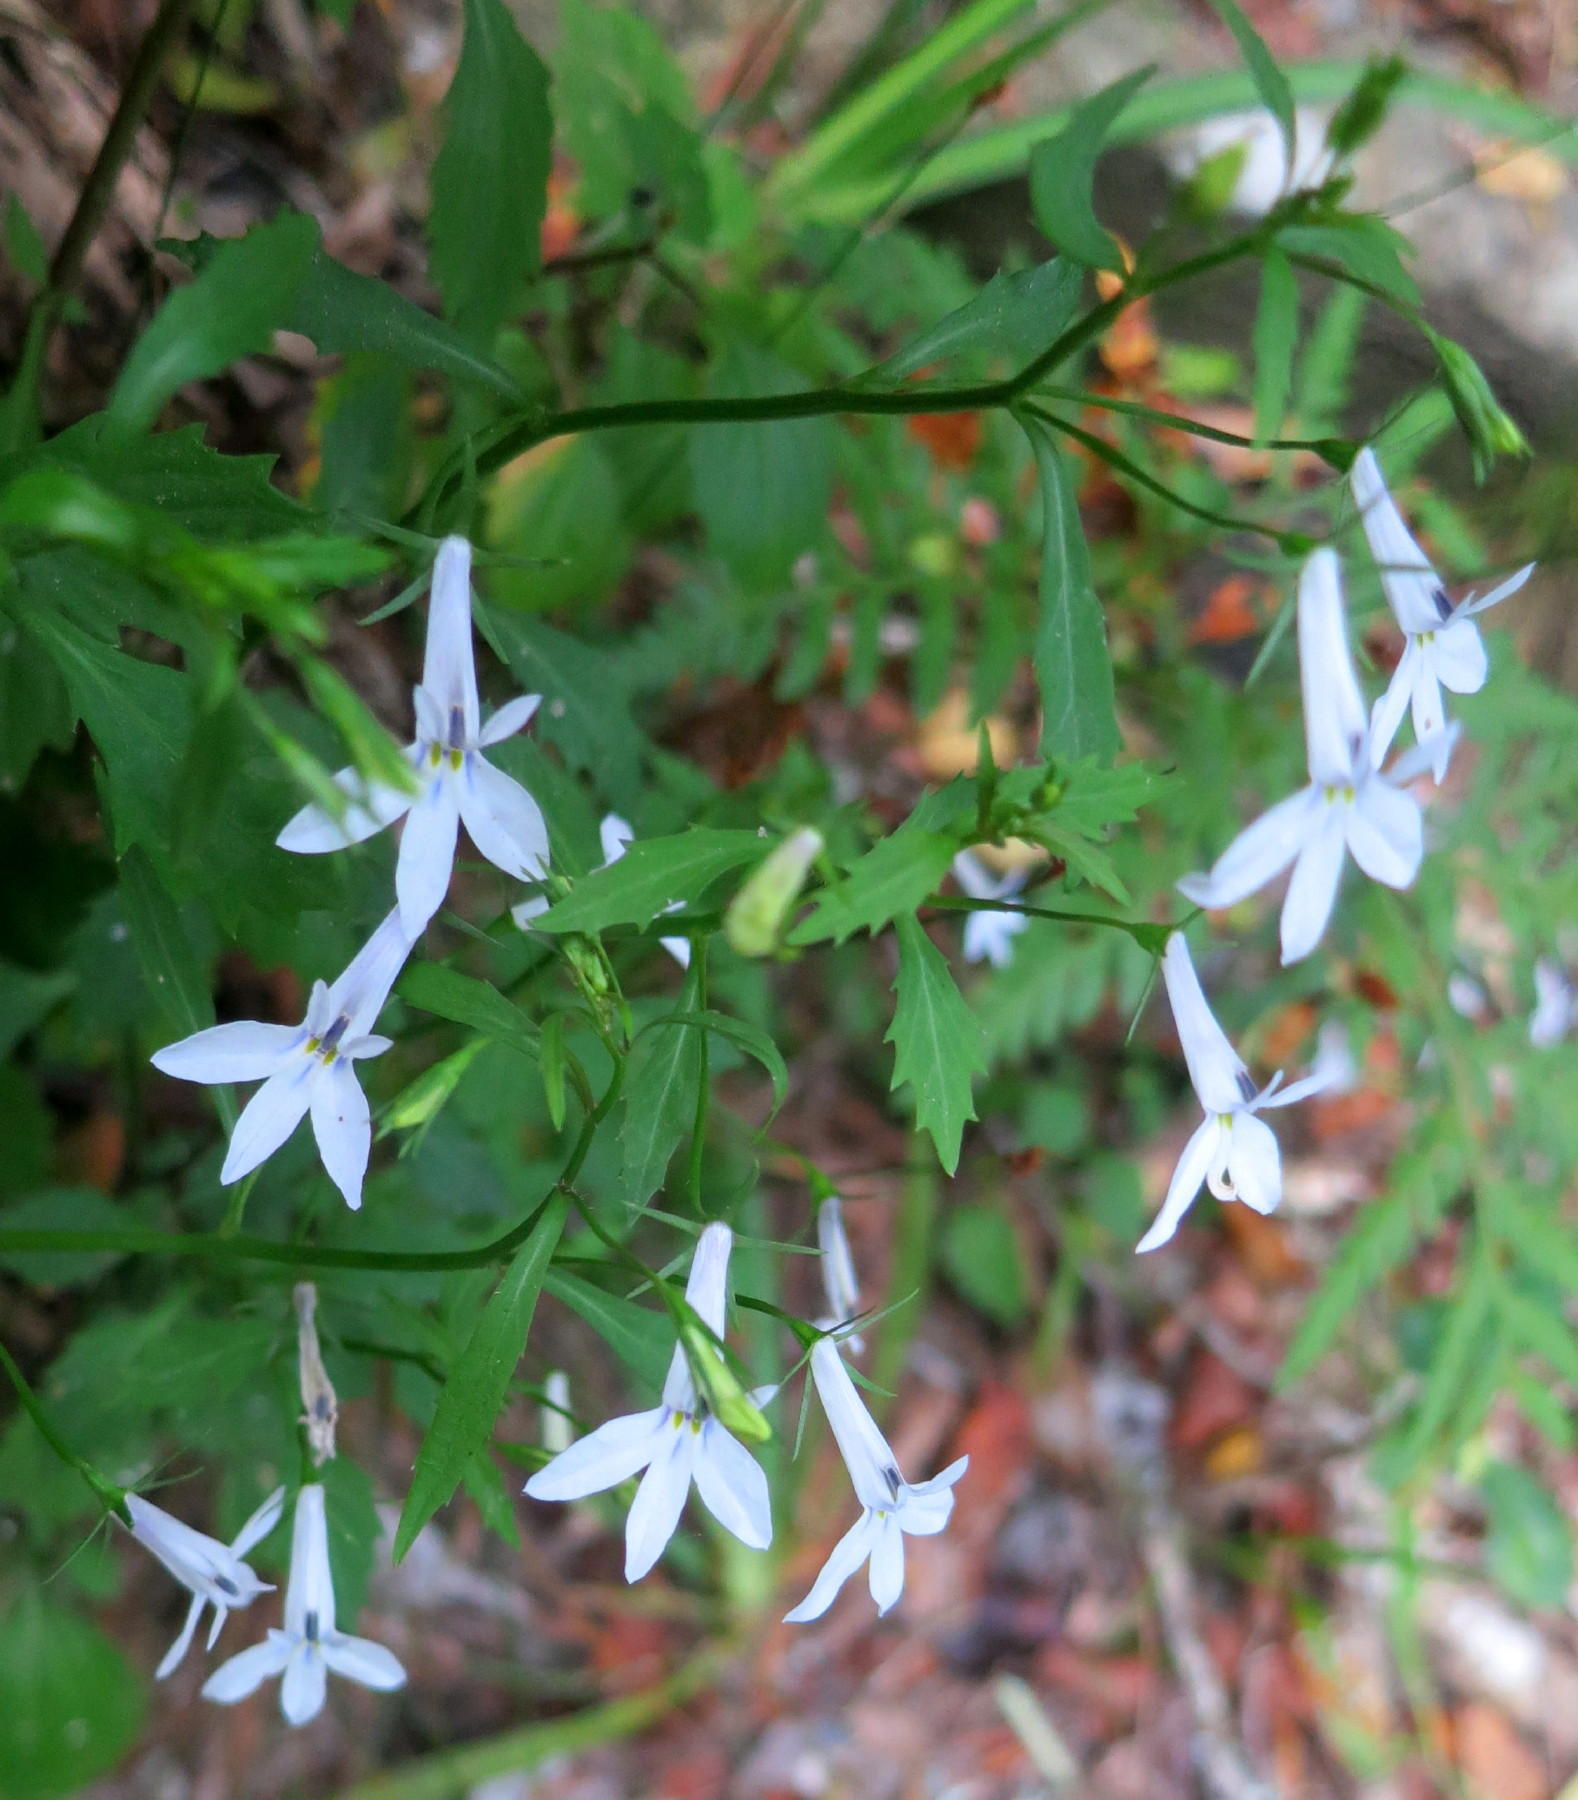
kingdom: Plantae
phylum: Tracheophyta
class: Magnoliopsida
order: Asterales
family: Campanulaceae
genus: Lobelia
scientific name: Lobelia pubescens
